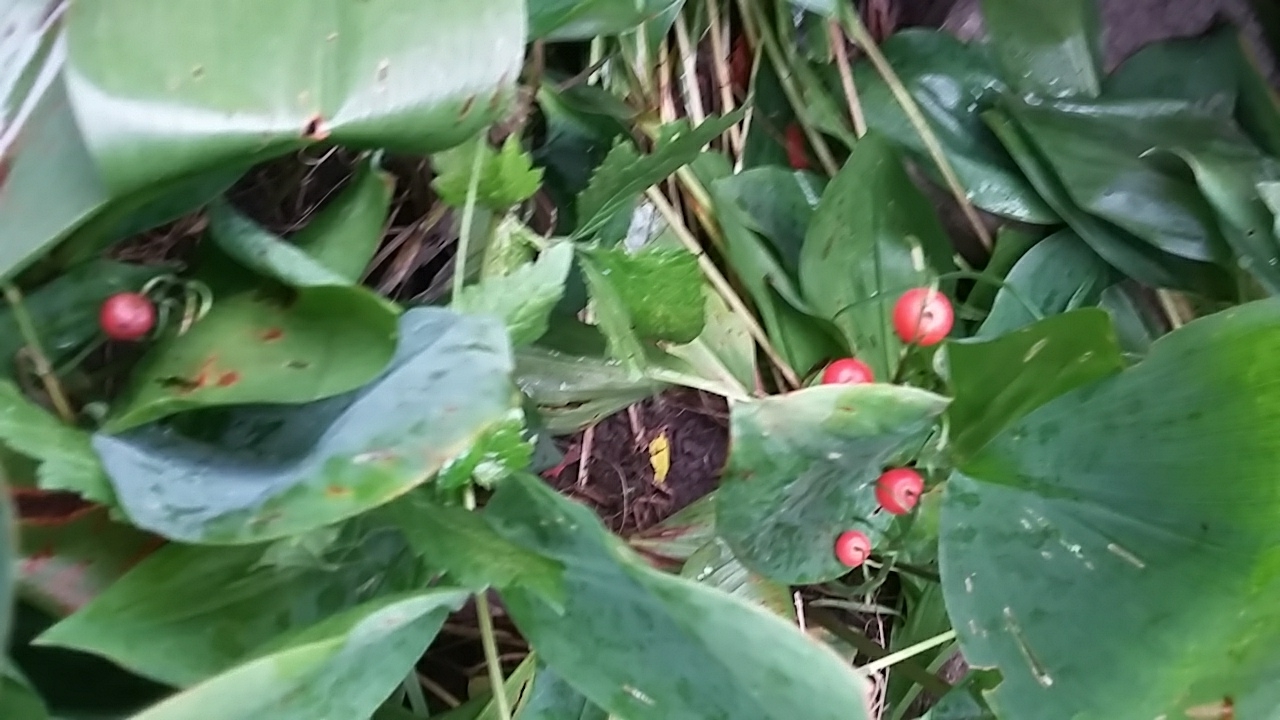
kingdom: Plantae
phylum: Tracheophyta
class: Liliopsida
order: Asparagales
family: Asparagaceae
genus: Convallaria
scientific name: Convallaria majalis
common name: Lily-of-the-valley
